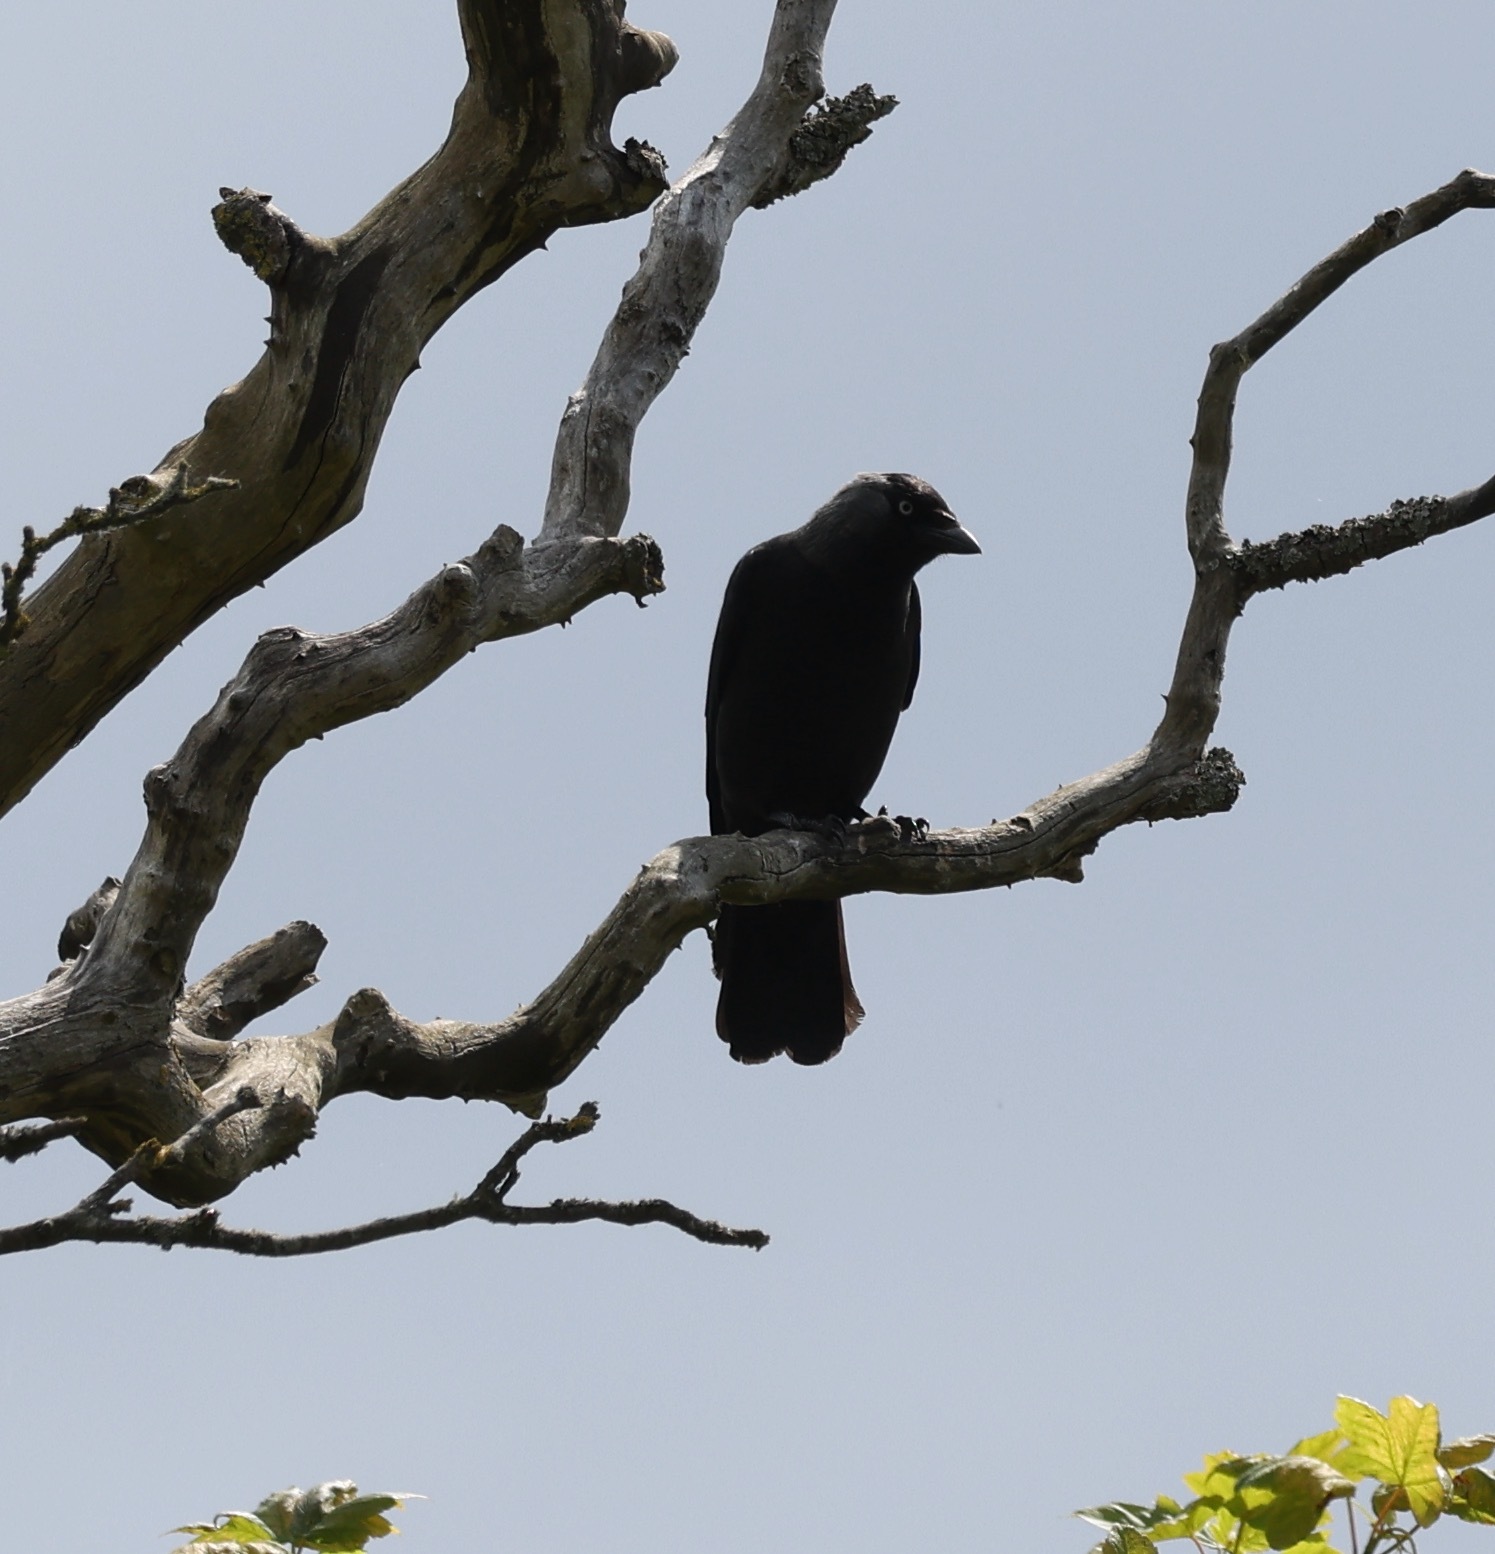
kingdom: Animalia
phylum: Chordata
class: Aves
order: Passeriformes
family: Corvidae
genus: Coloeus
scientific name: Coloeus monedula
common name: Western jackdaw
